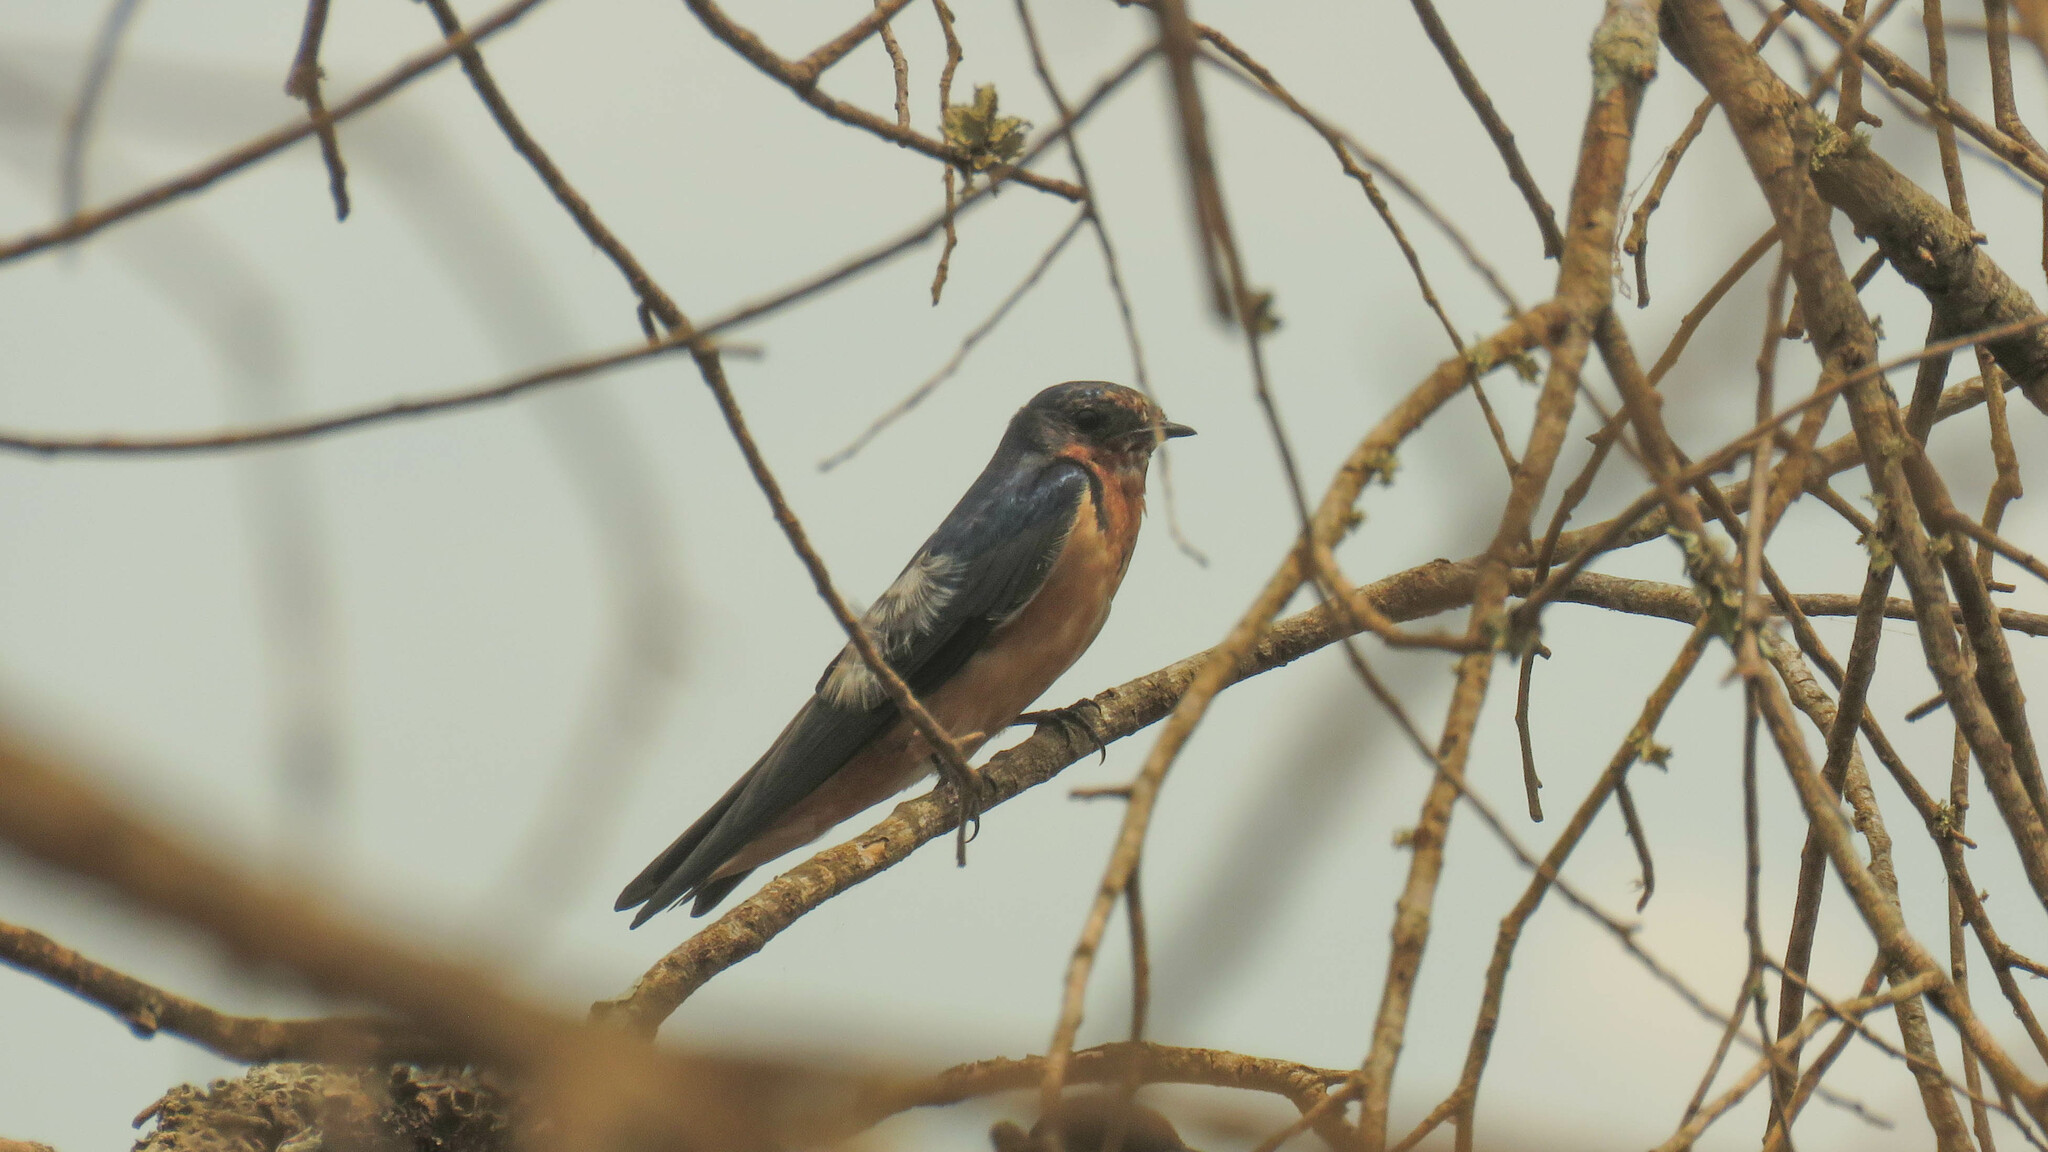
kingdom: Animalia
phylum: Chordata
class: Aves
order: Passeriformes
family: Hirundinidae
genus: Hirundo
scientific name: Hirundo rustica
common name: Barn swallow
